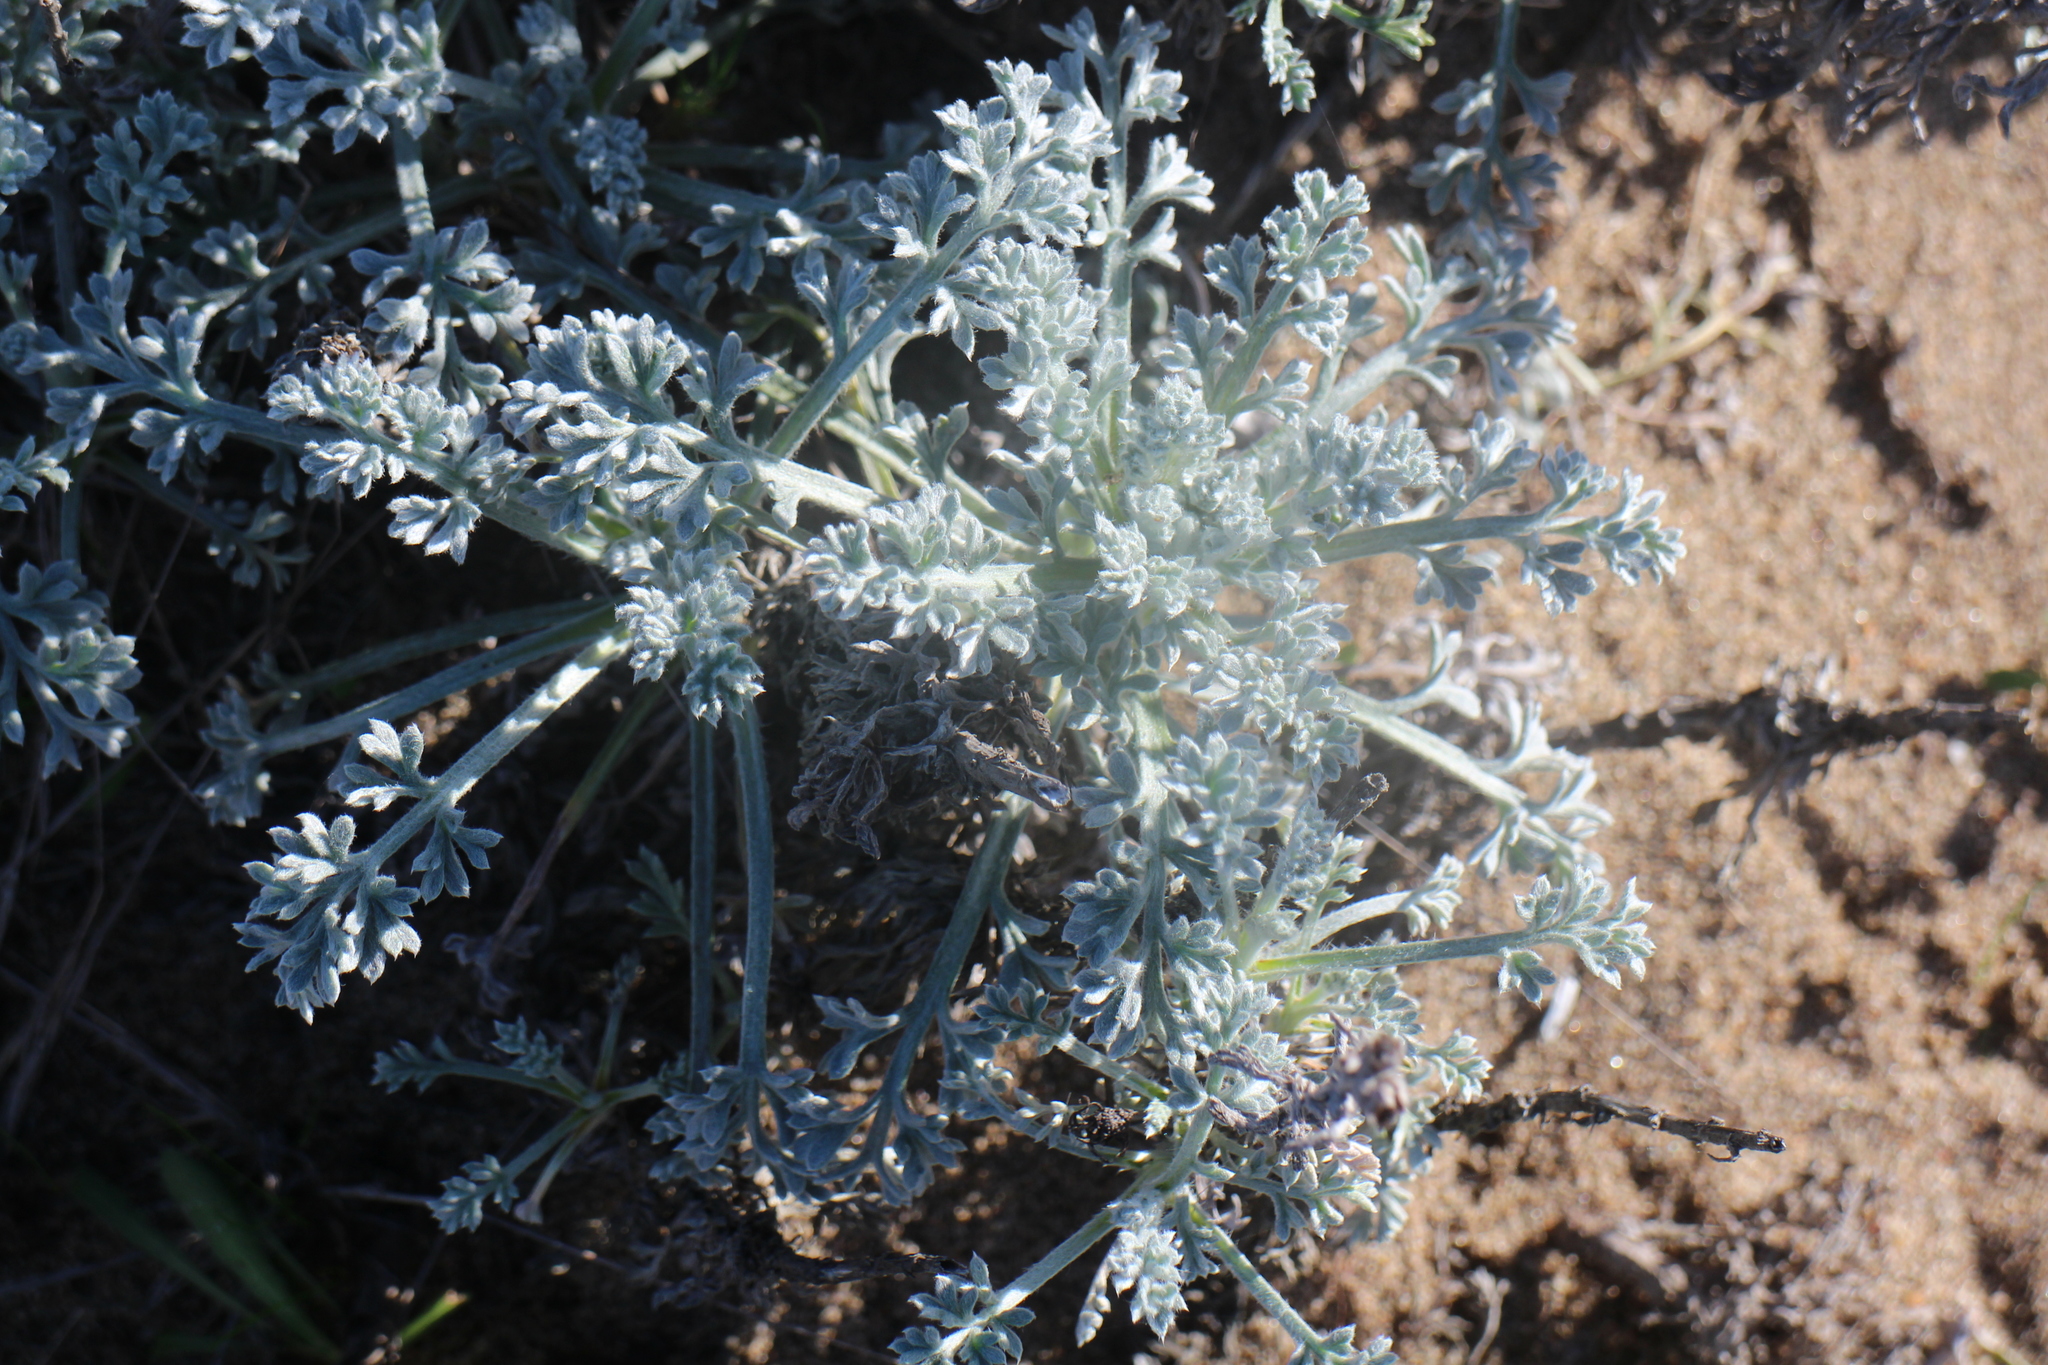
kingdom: Plantae
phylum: Tracheophyta
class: Magnoliopsida
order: Asterales
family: Asteraceae
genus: Artemisia
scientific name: Artemisia pycnocephala
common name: Coastal sagewort
